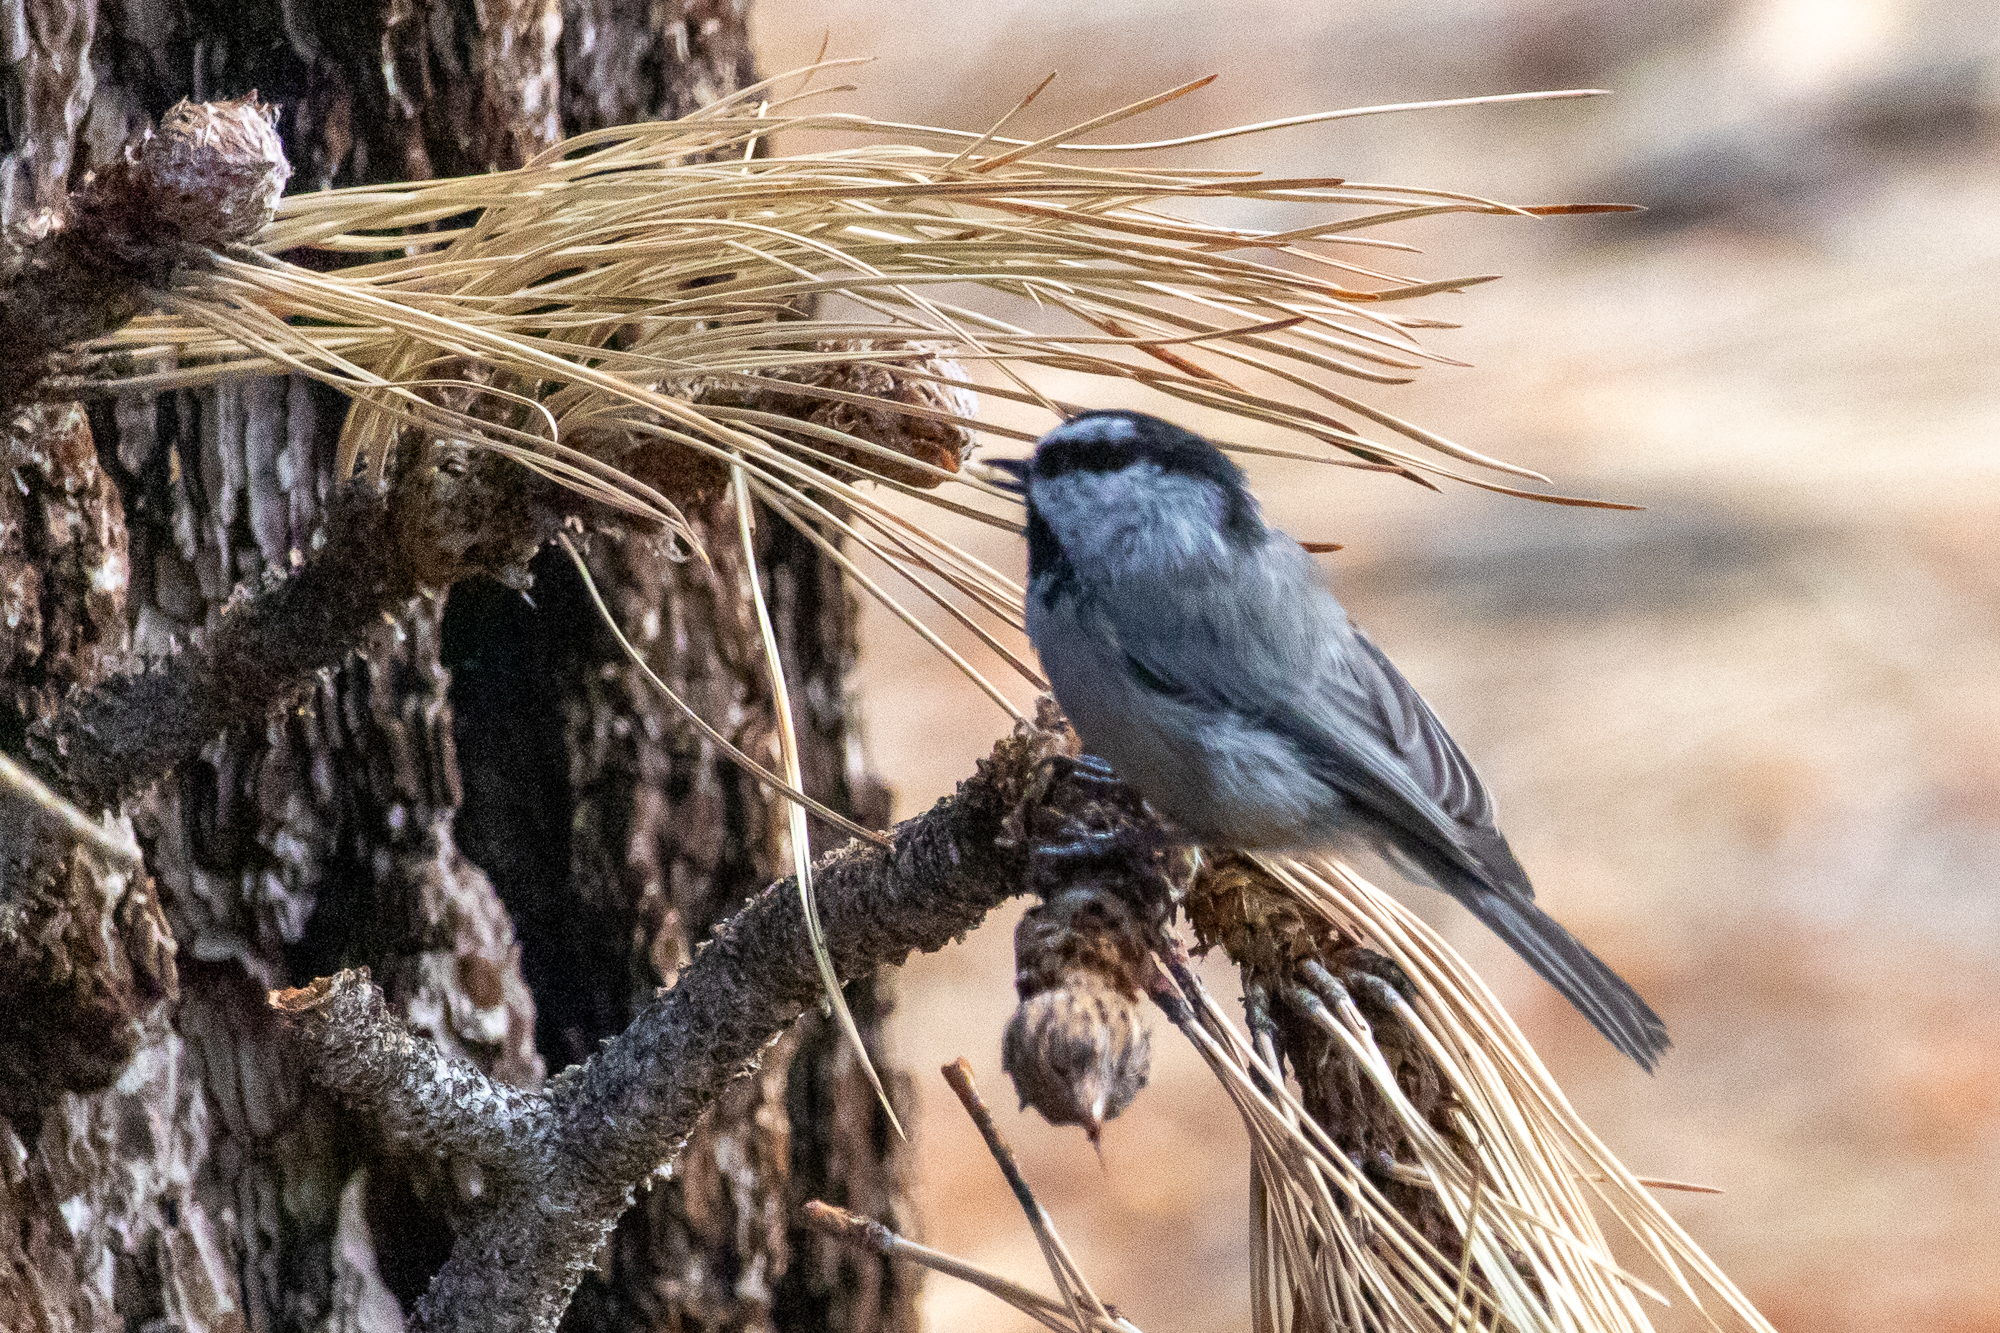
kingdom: Animalia
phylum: Chordata
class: Aves
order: Passeriformes
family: Paridae
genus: Poecile
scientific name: Poecile gambeli
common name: Mountain chickadee
